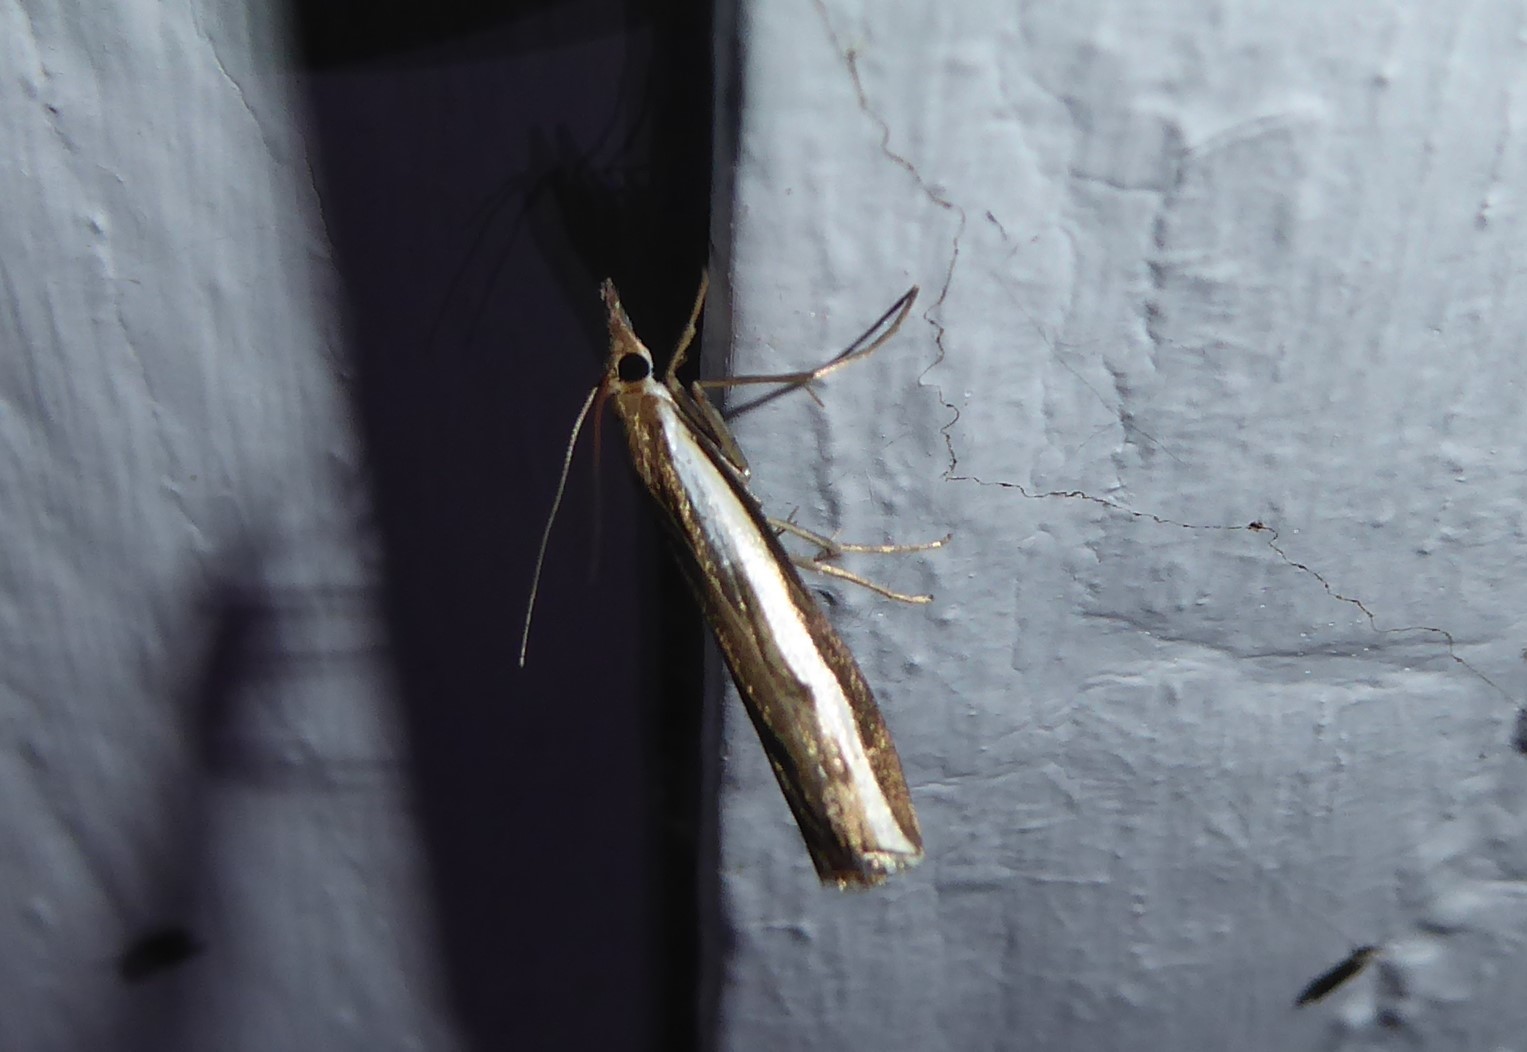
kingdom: Animalia
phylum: Arthropoda
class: Insecta
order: Lepidoptera
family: Crambidae
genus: Orocrambus
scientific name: Orocrambus flexuosellus
